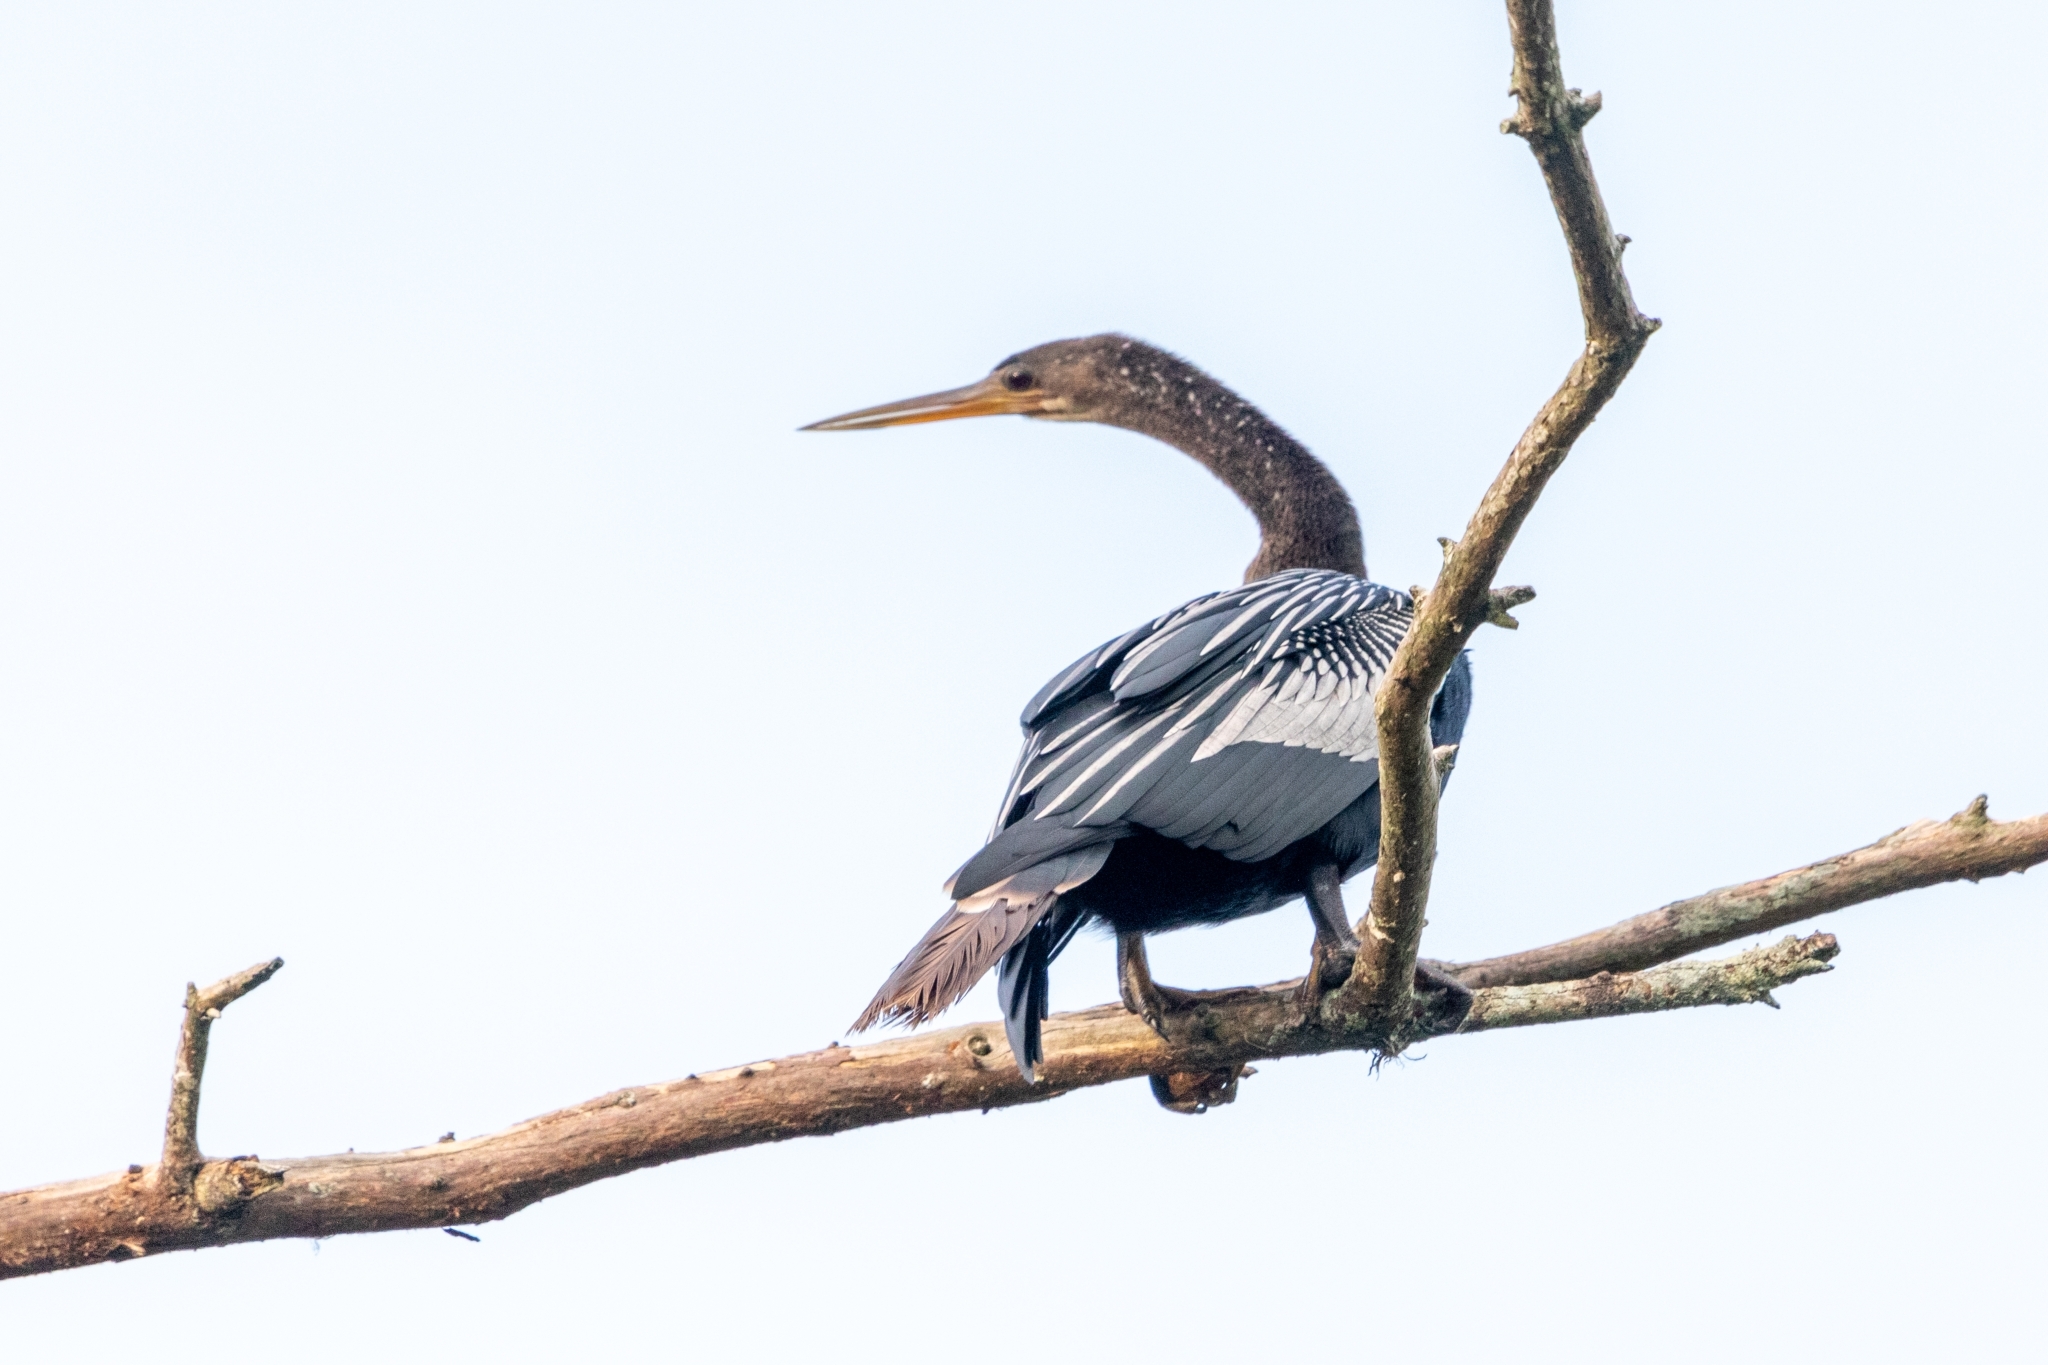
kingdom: Animalia
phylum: Chordata
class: Aves
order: Suliformes
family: Anhingidae
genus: Anhinga
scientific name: Anhinga anhinga
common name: Anhinga
